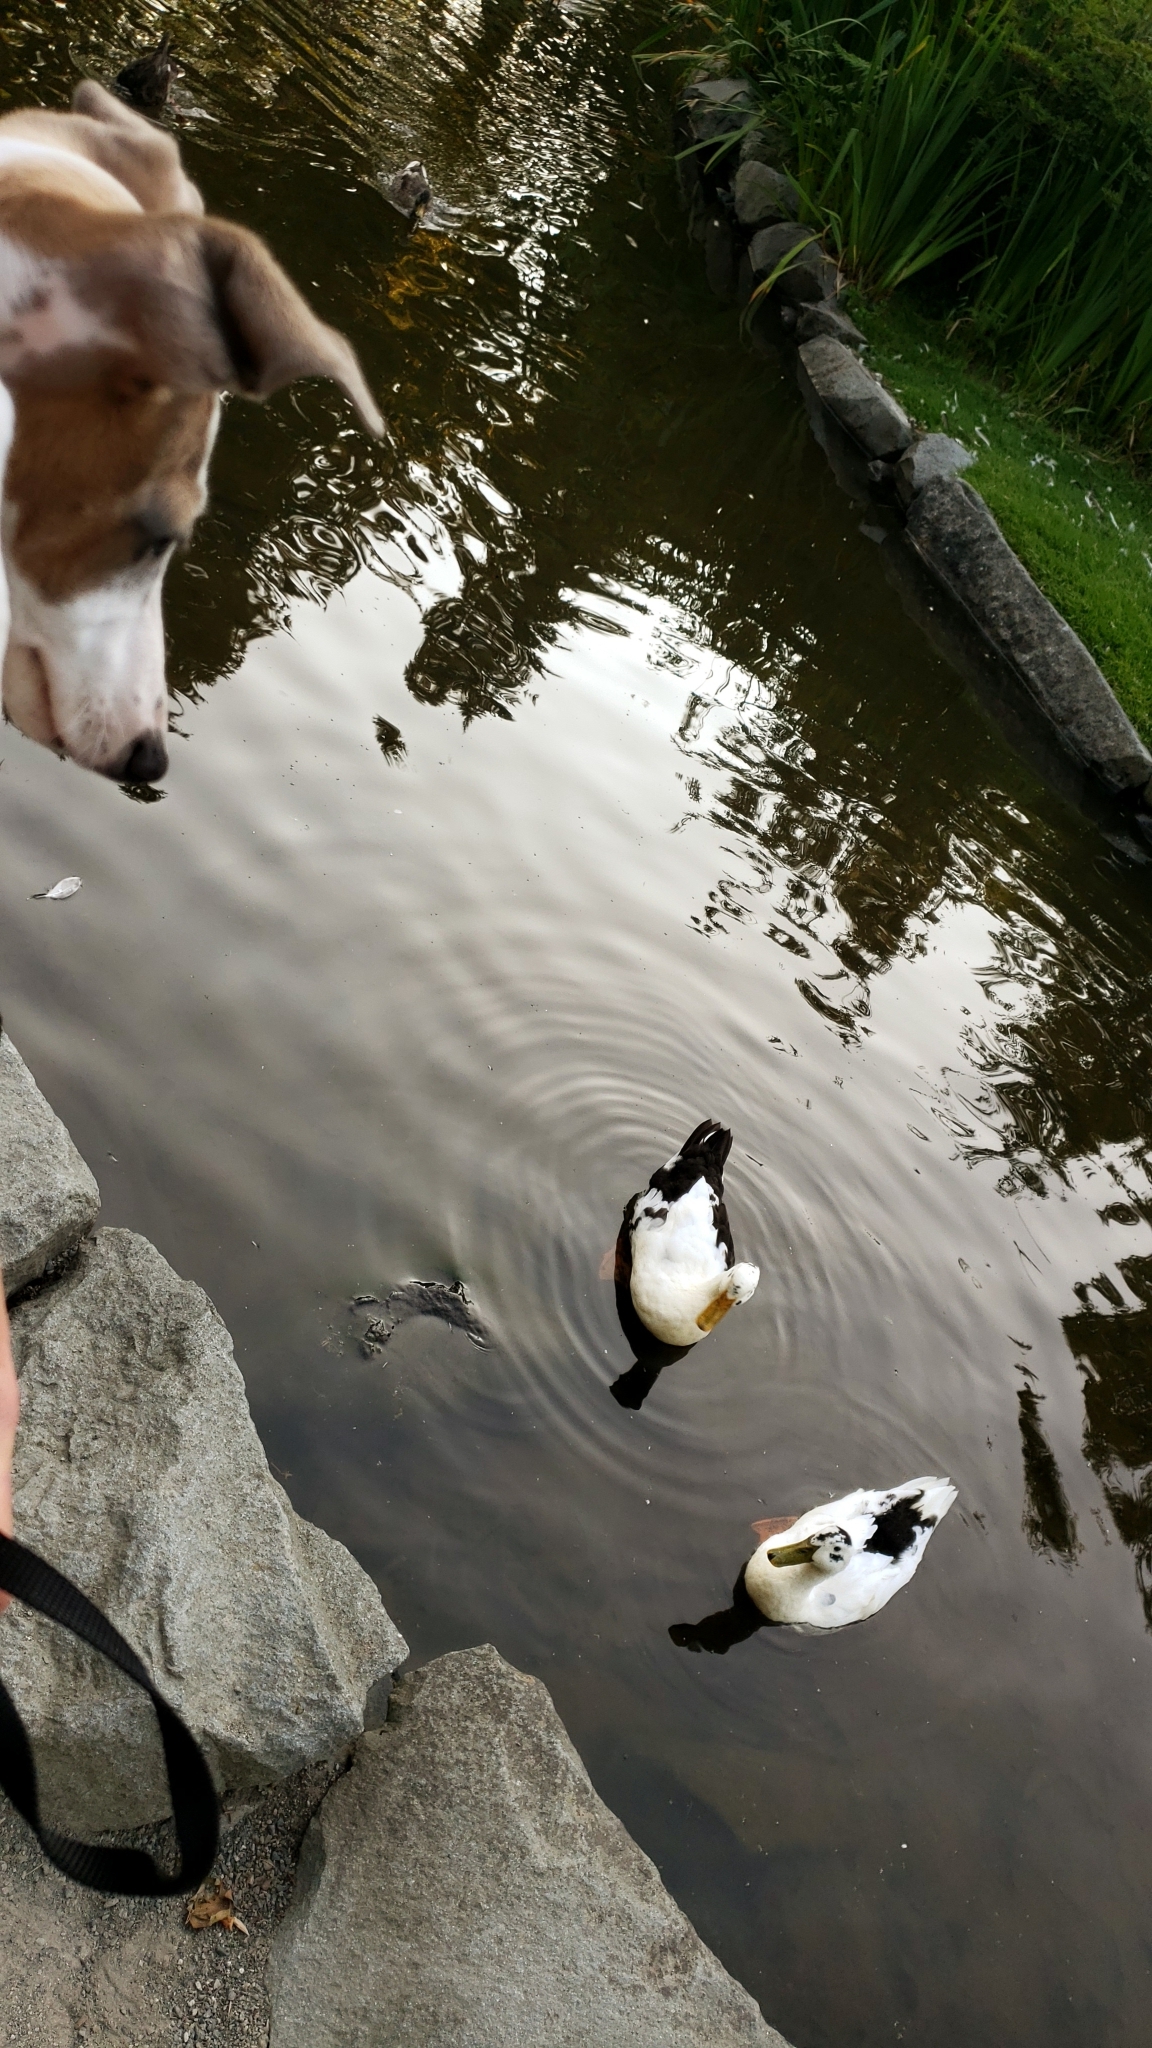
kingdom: Animalia
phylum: Chordata
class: Aves
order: Anseriformes
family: Anatidae
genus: Anas
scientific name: Anas platyrhynchos
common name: Mallard
